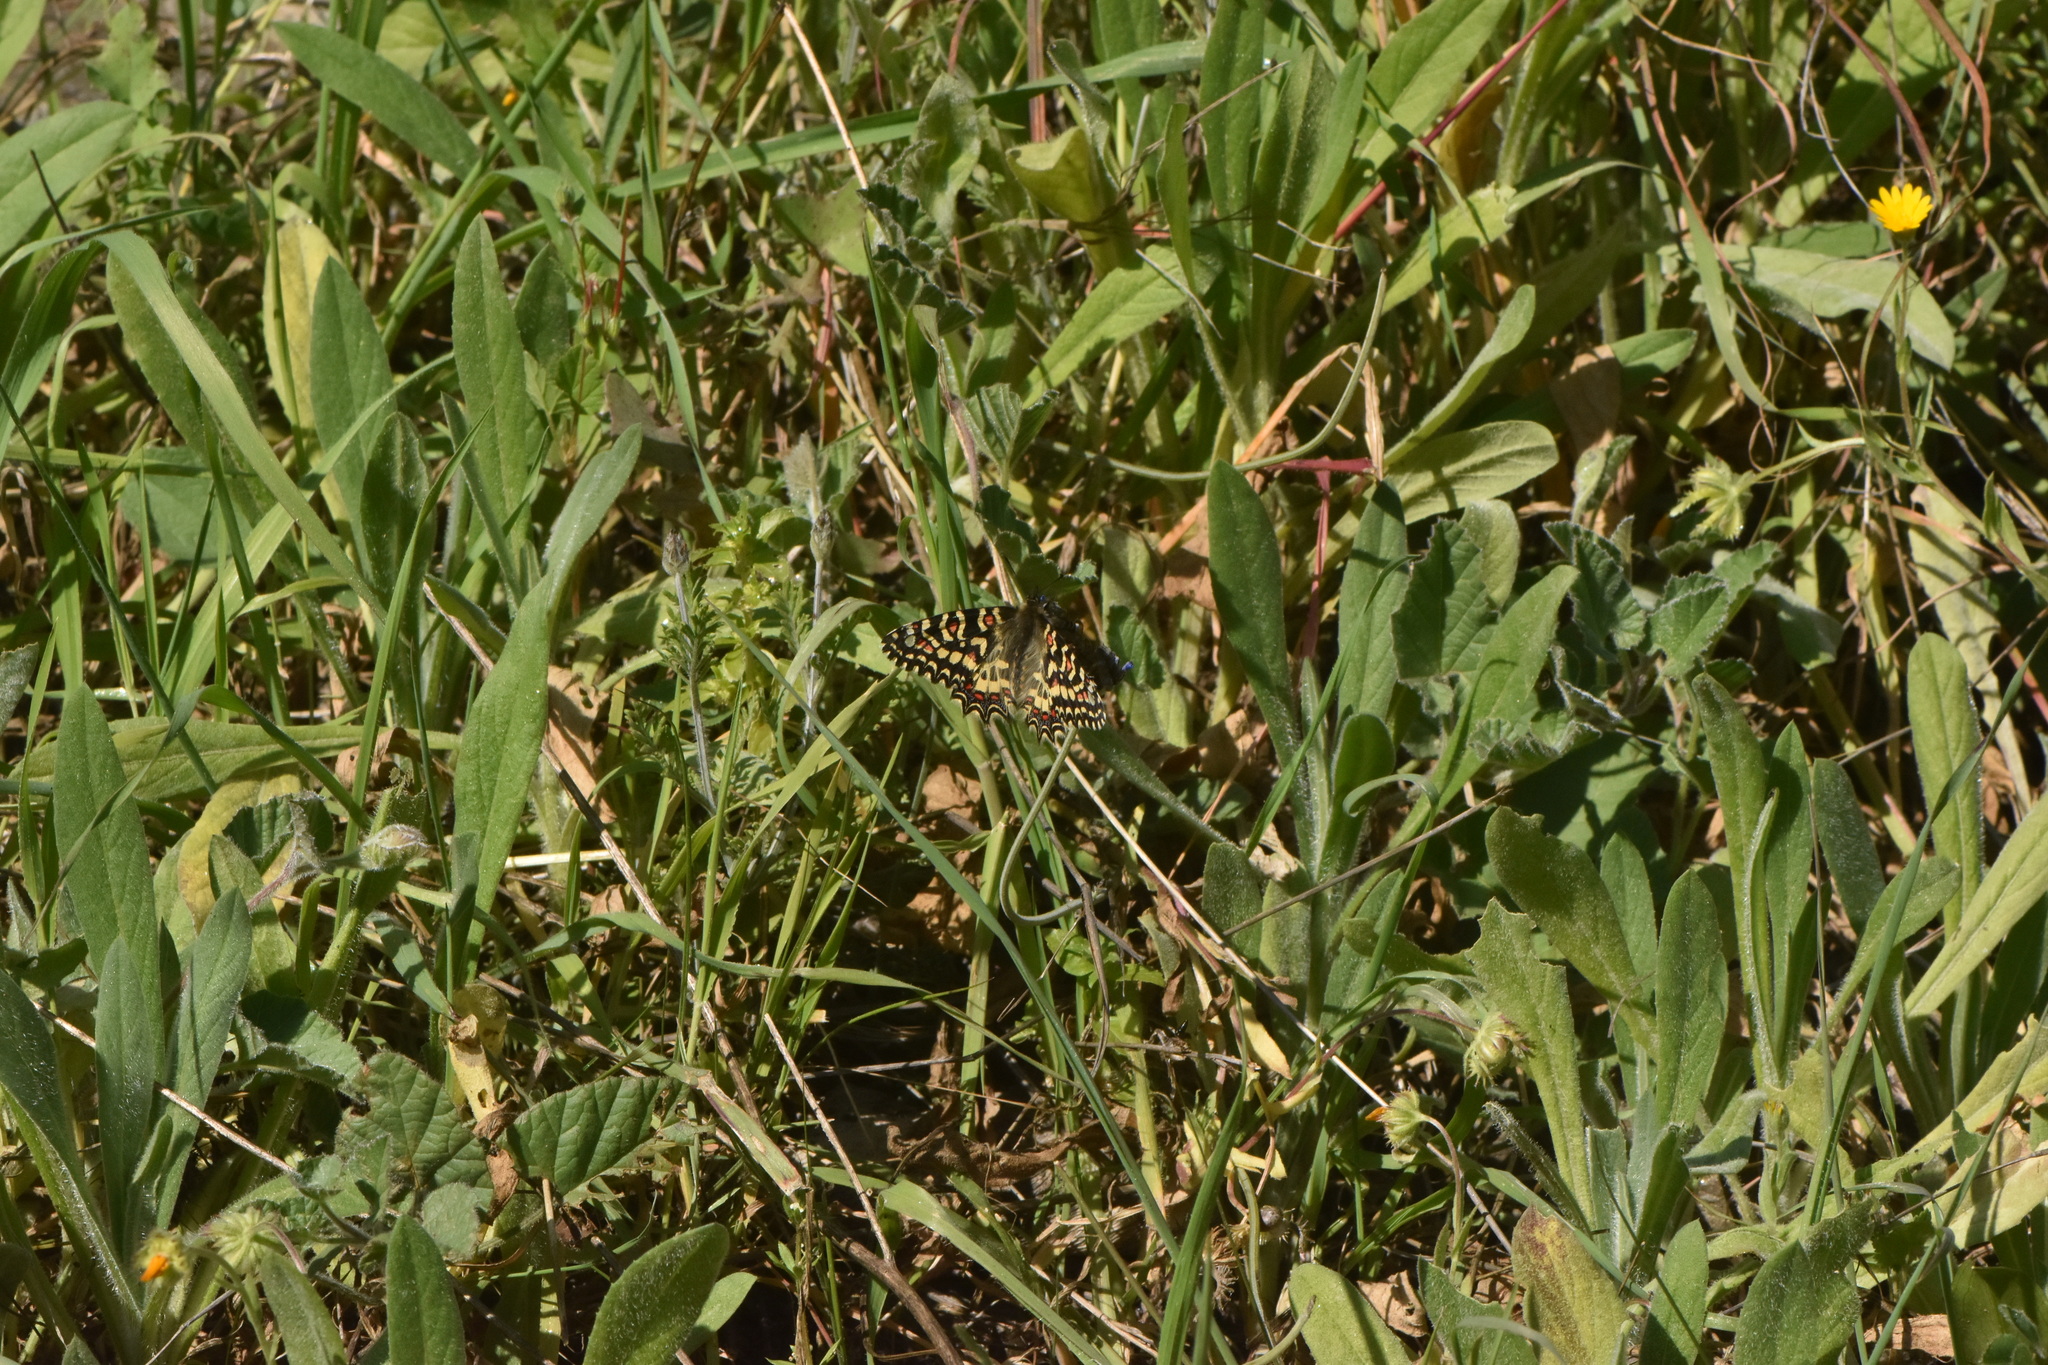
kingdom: Animalia
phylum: Arthropoda
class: Insecta
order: Lepidoptera
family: Papilionidae
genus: Zerynthia
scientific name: Zerynthia rumina
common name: Spanish festoon
